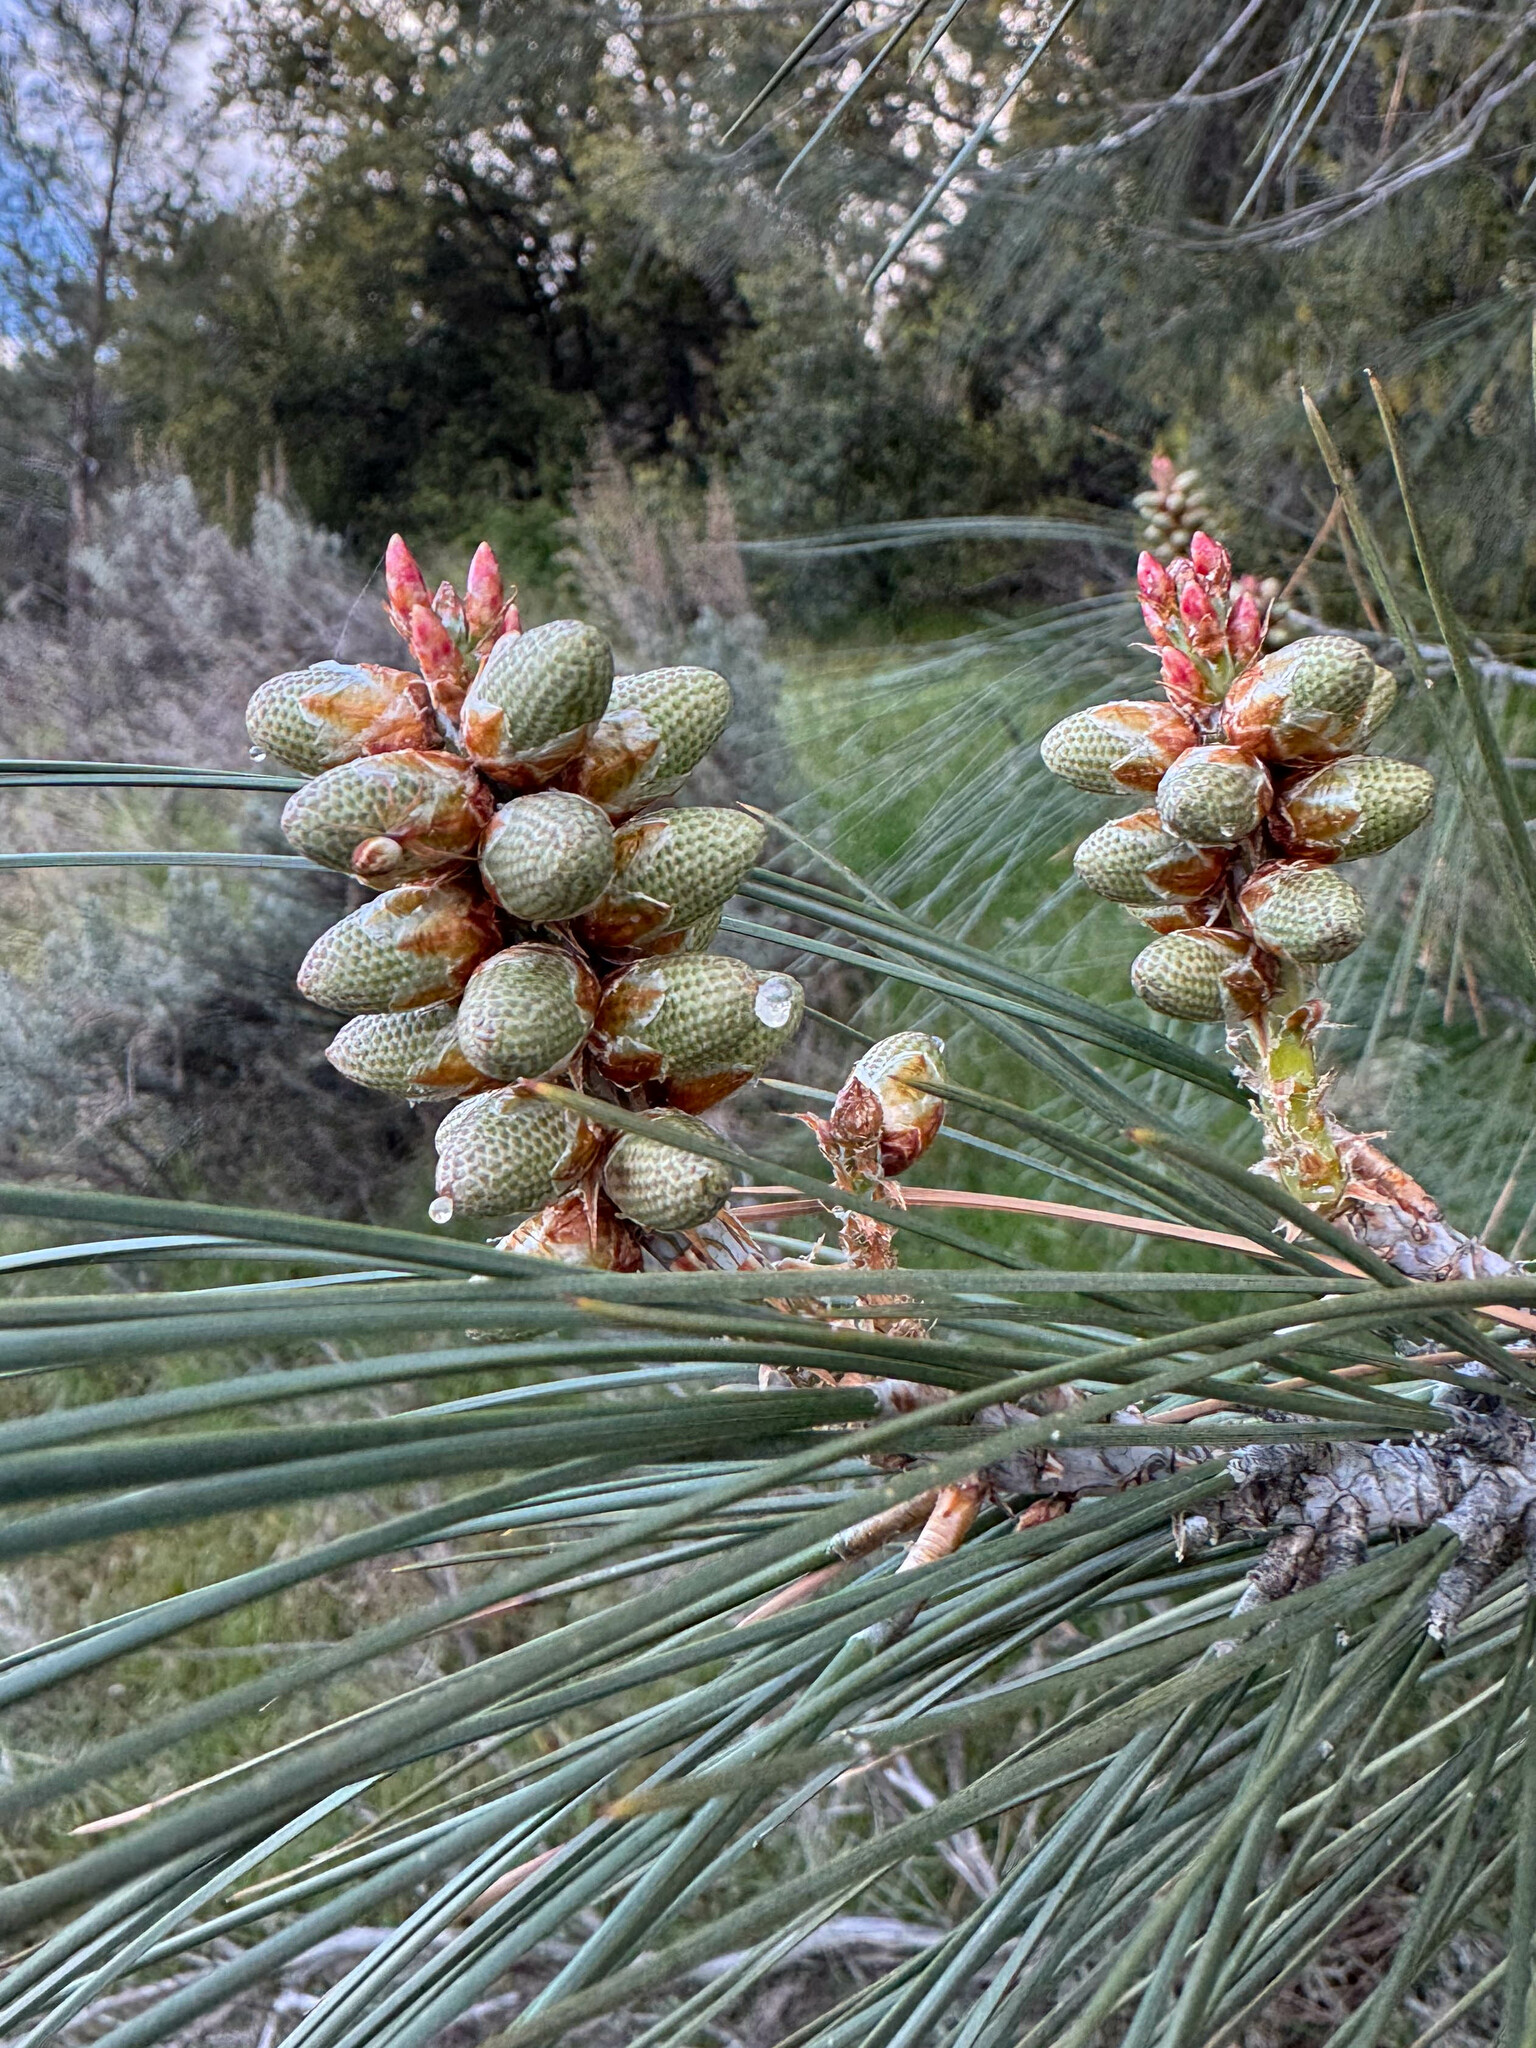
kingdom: Plantae
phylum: Tracheophyta
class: Pinopsida
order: Pinales
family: Pinaceae
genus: Pinus
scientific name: Pinus sabiniana
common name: Bull pine
